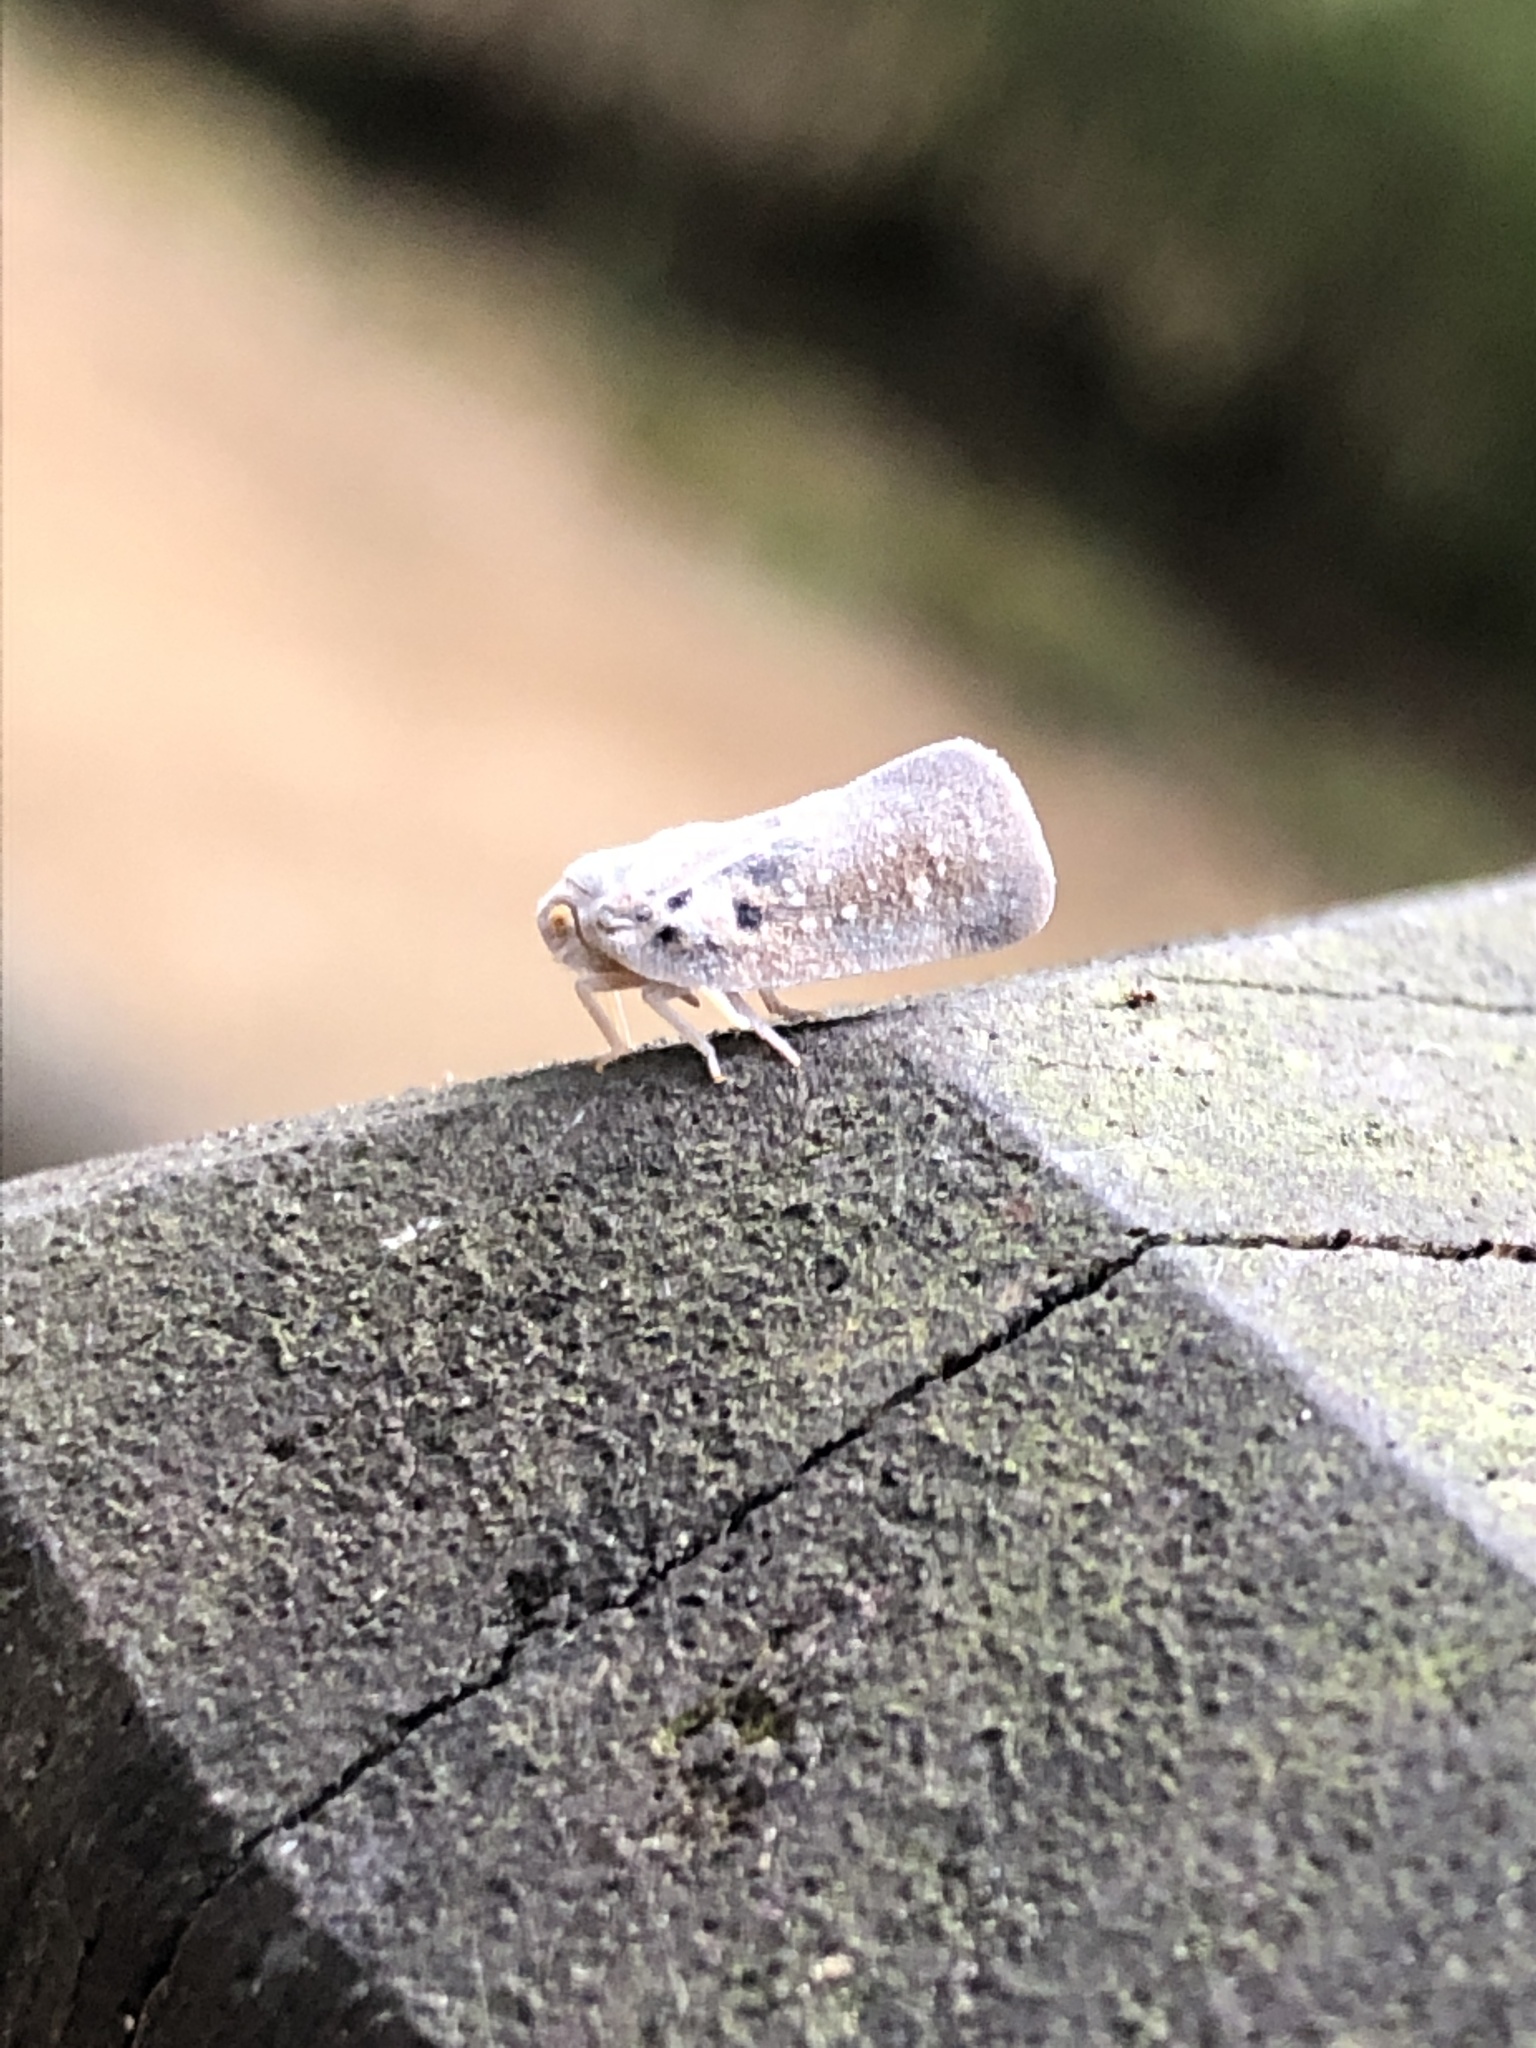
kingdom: Animalia
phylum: Arthropoda
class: Insecta
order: Hemiptera
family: Flatidae
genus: Metcalfa
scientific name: Metcalfa pruinosa
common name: Citrus flatid planthopper
